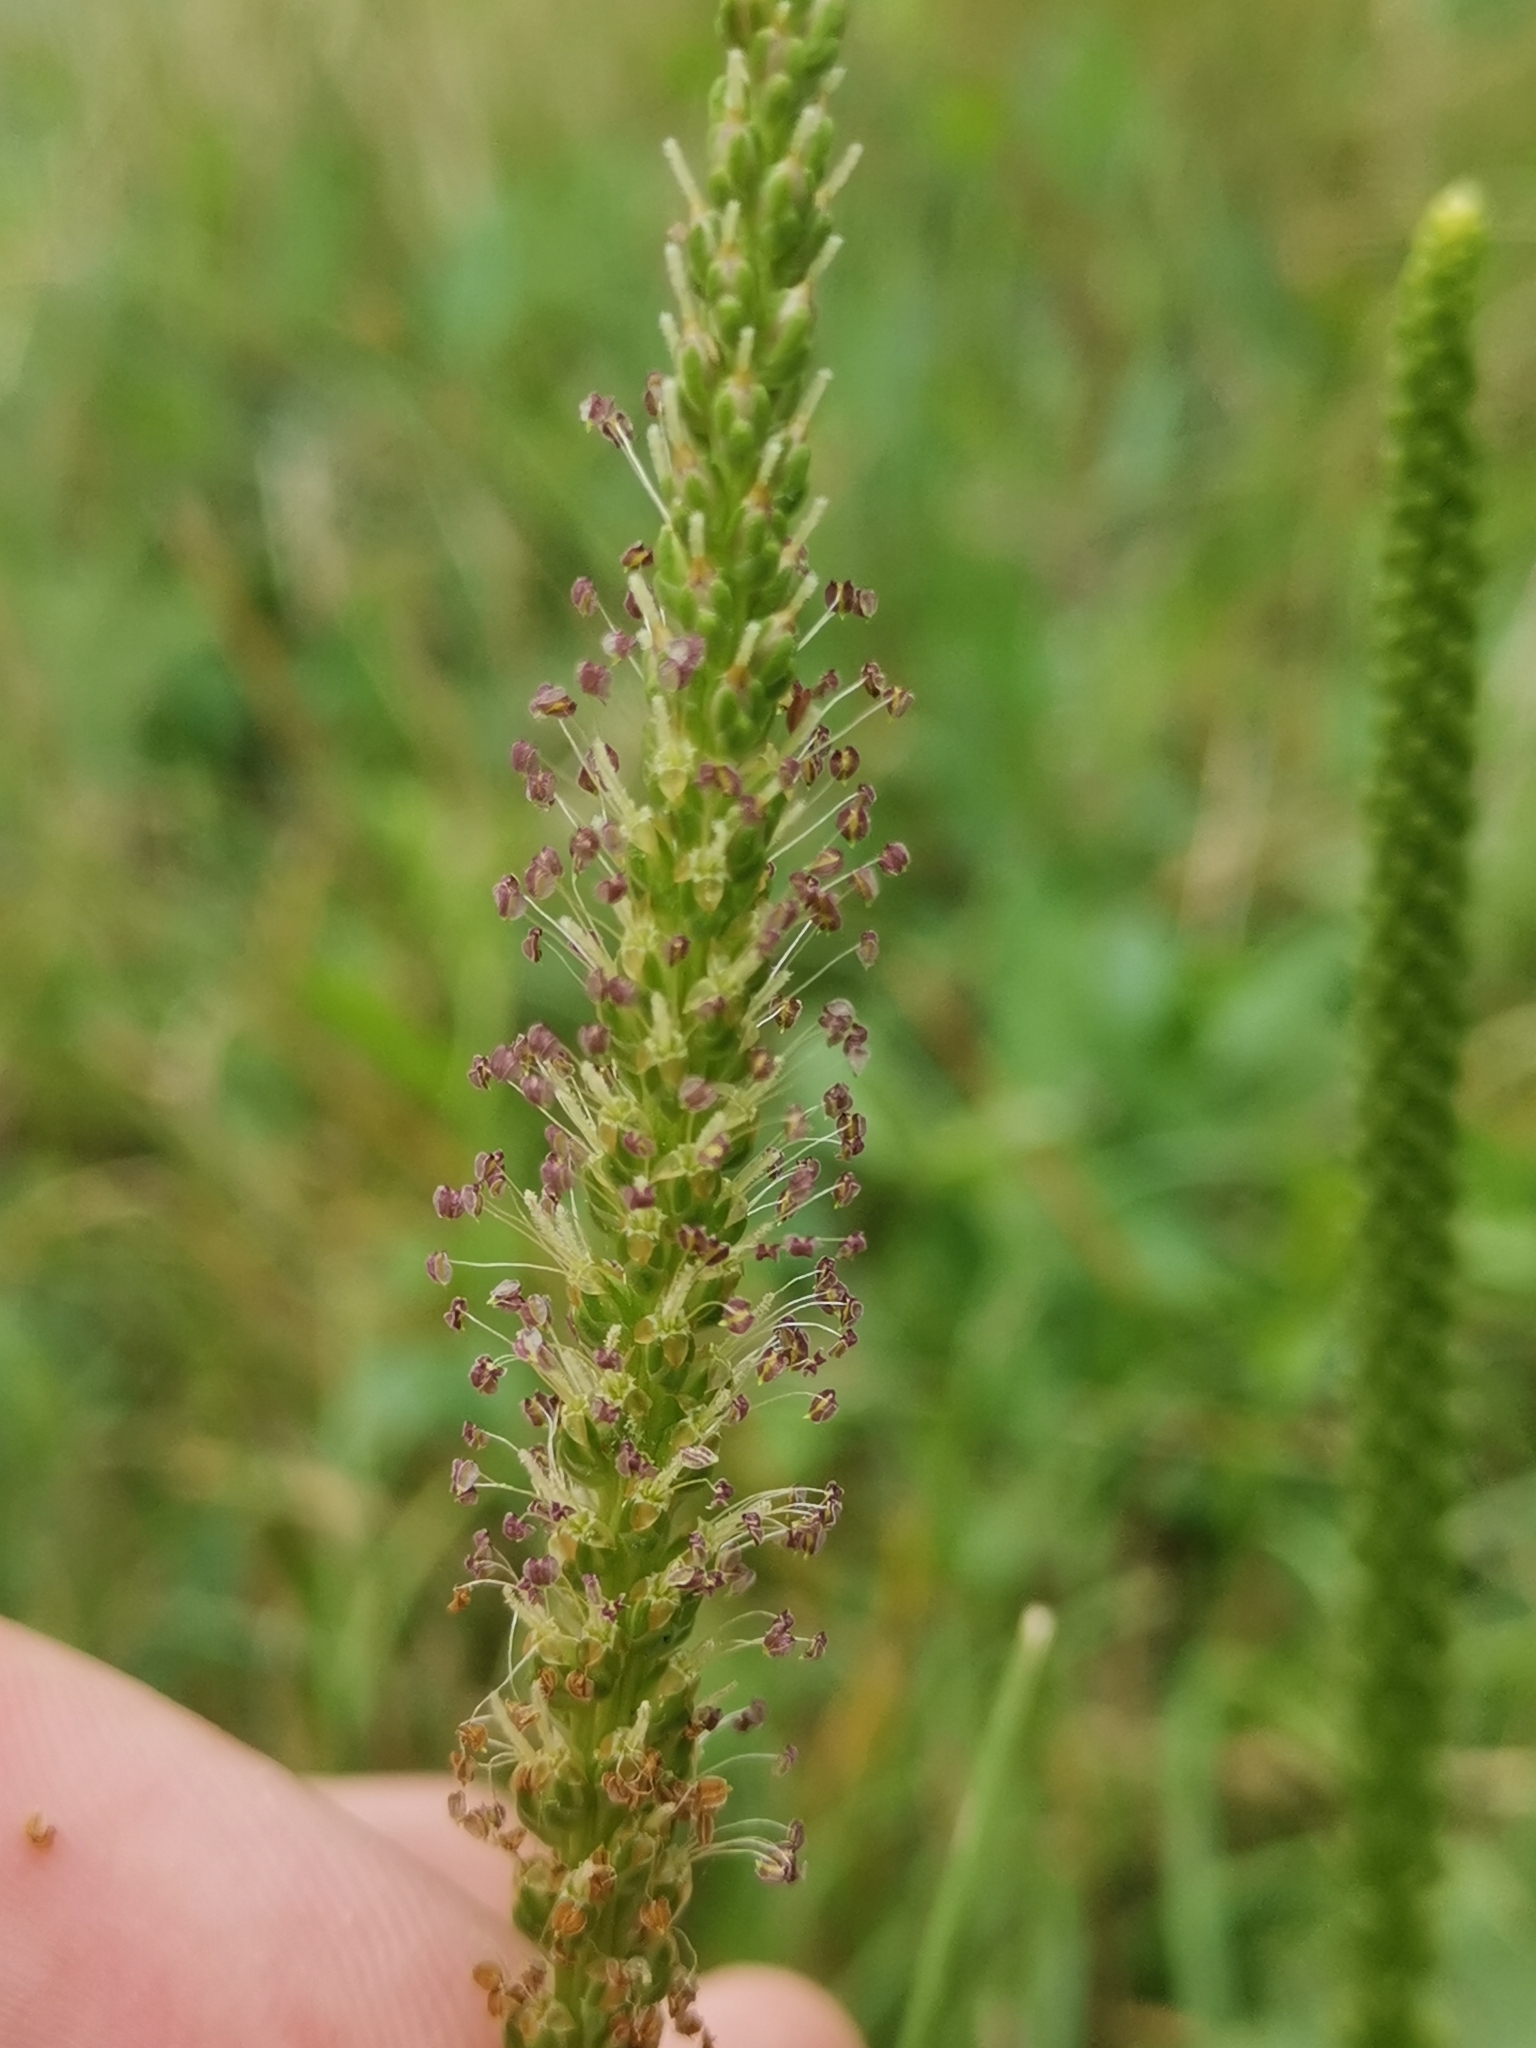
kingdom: Plantae
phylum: Tracheophyta
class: Magnoliopsida
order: Lamiales
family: Plantaginaceae
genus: Plantago
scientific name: Plantago major
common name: Common plantain
